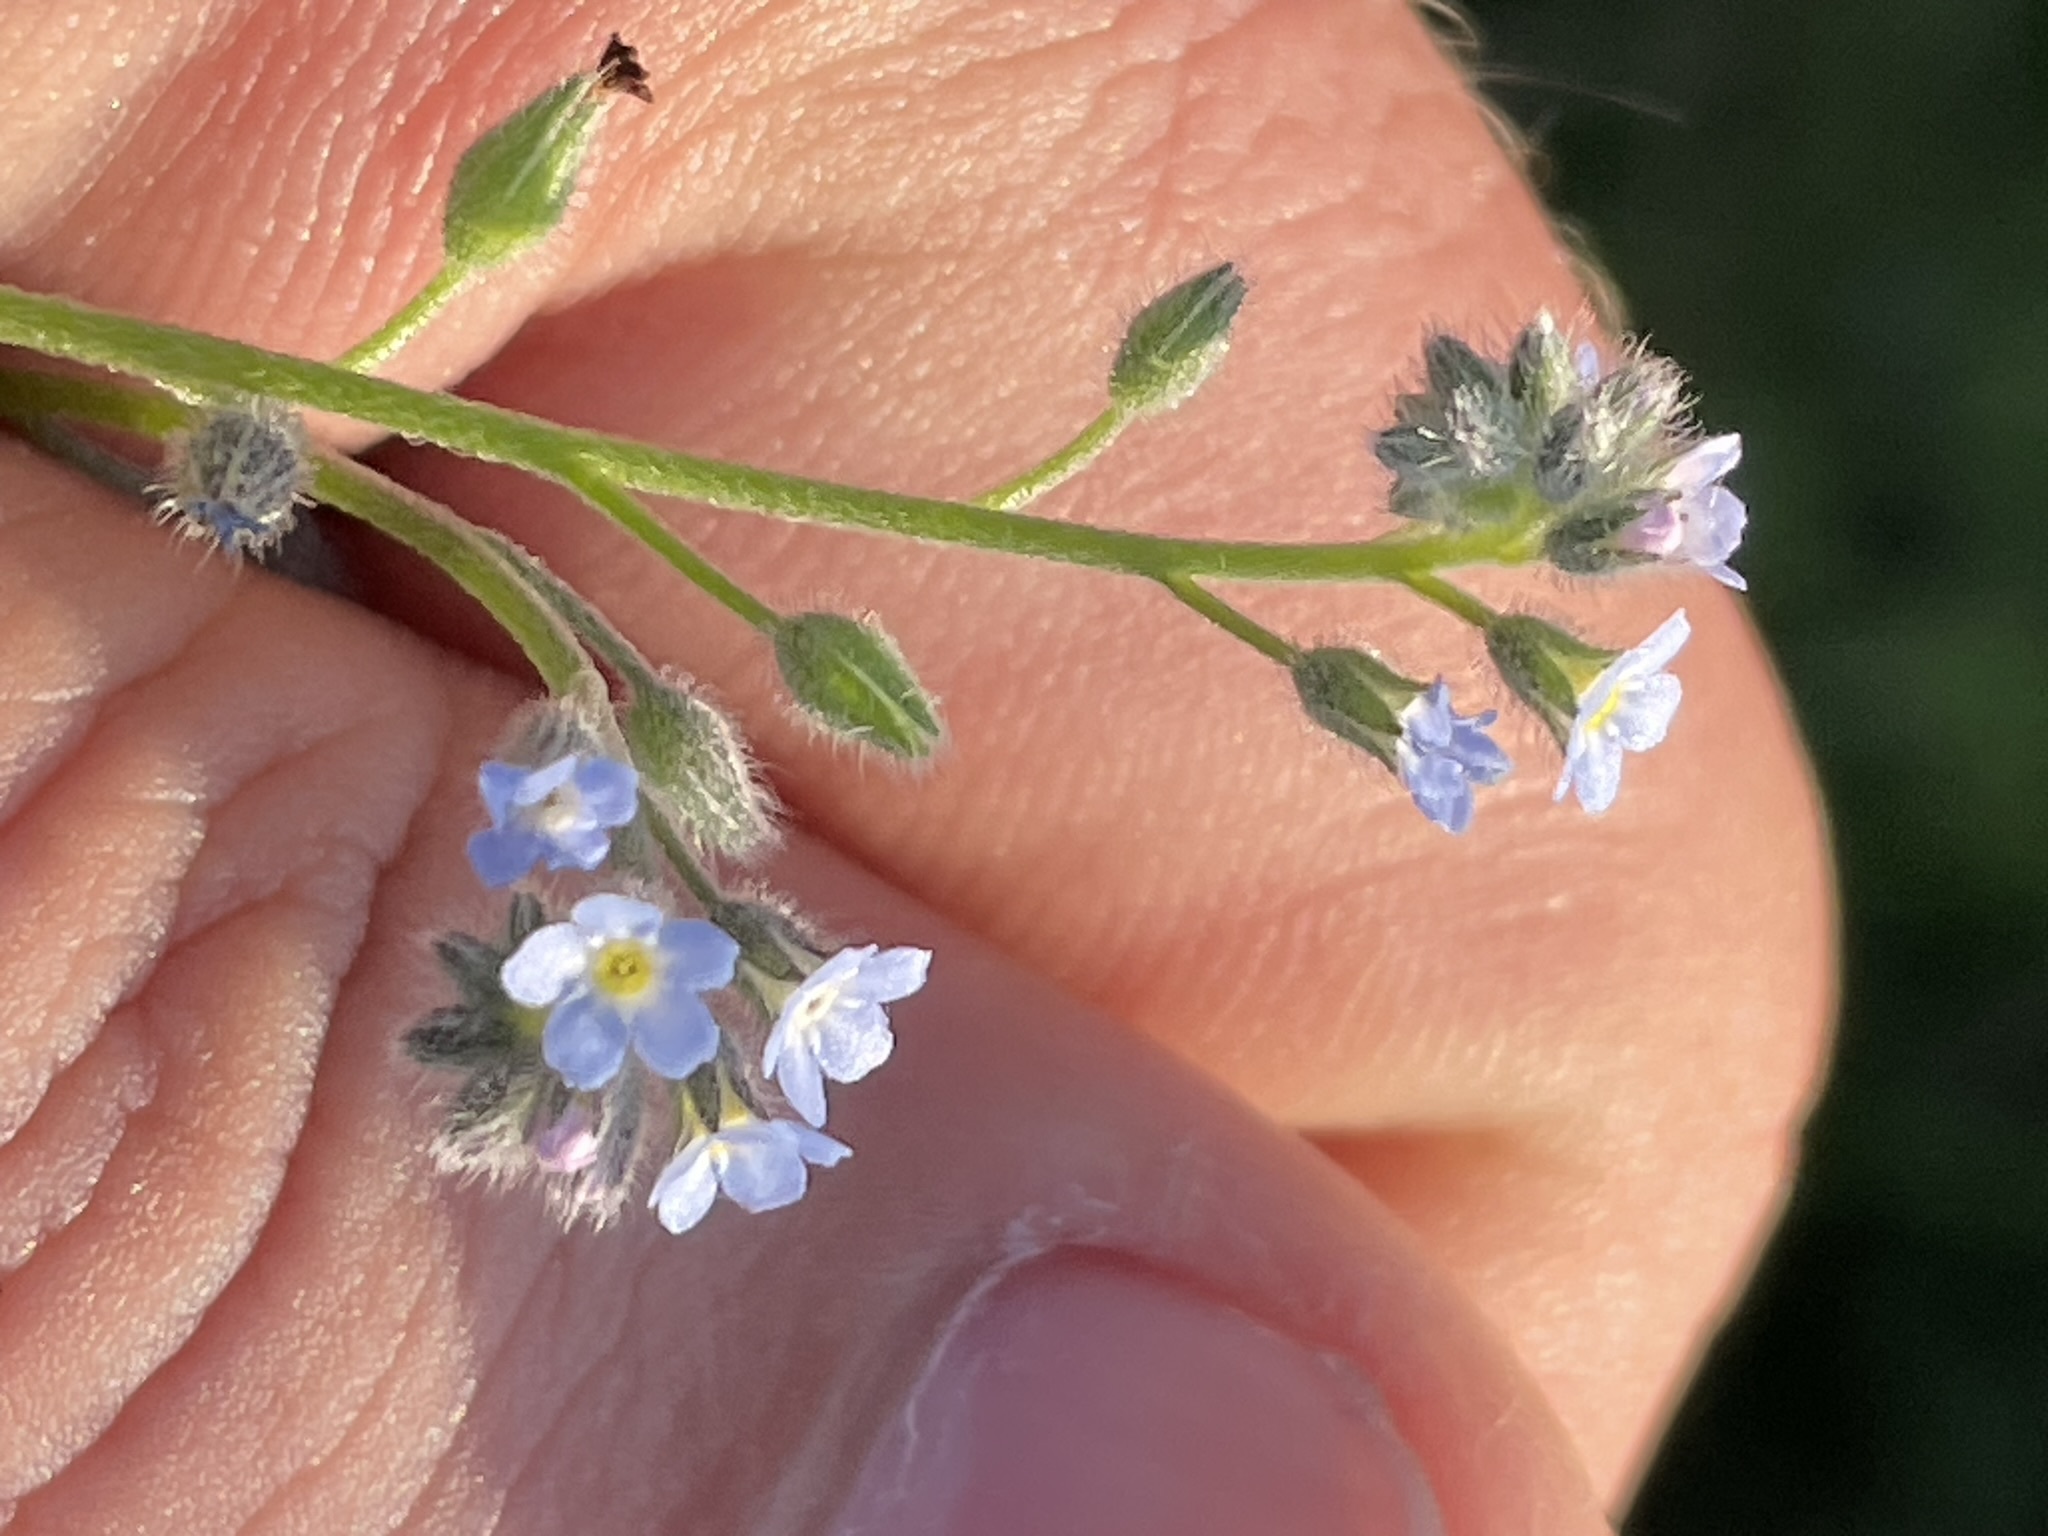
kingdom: Plantae
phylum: Tracheophyta
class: Magnoliopsida
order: Boraginales
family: Boraginaceae
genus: Myosotis
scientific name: Myosotis arvensis
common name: Field forget-me-not
